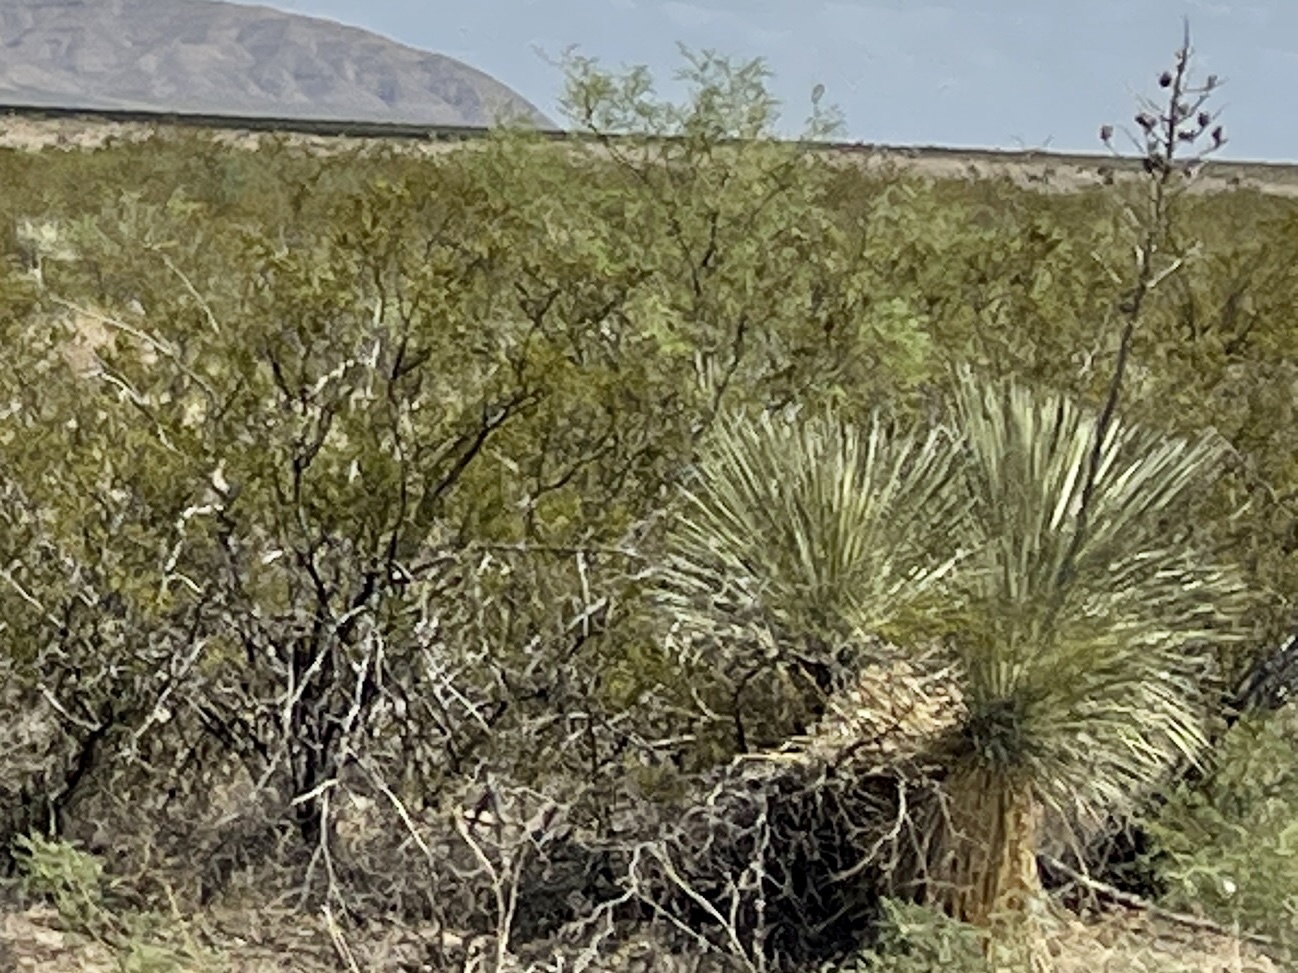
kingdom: Plantae
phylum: Tracheophyta
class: Liliopsida
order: Asparagales
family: Asparagaceae
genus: Yucca
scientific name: Yucca elata
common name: Palmella
